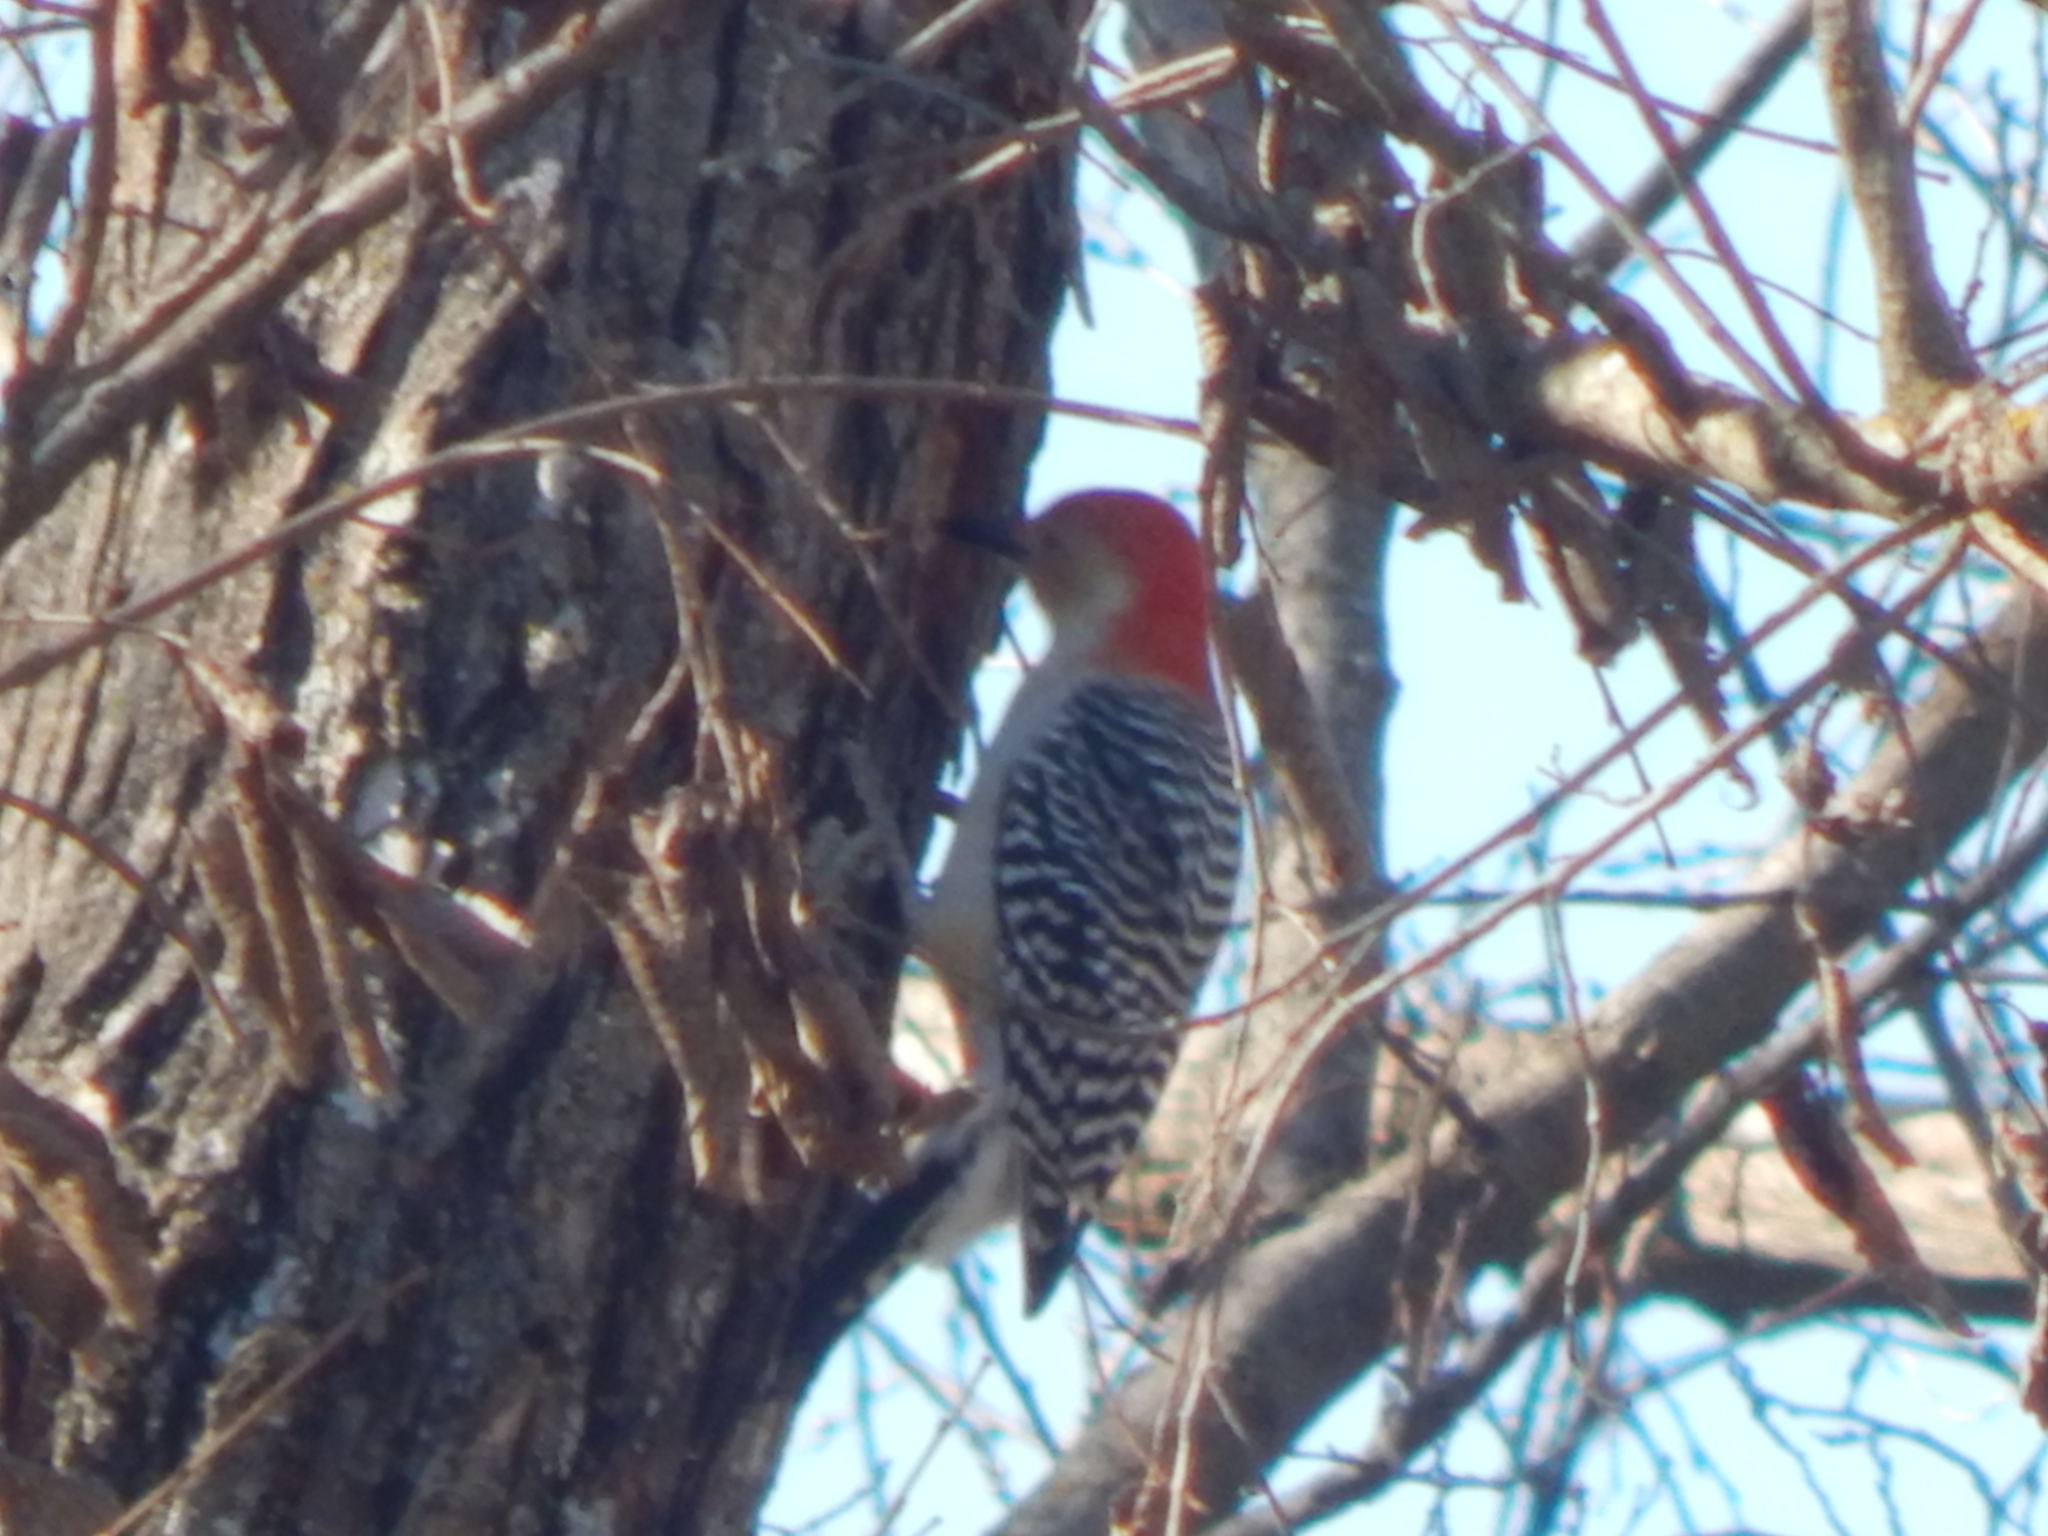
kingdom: Animalia
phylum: Chordata
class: Aves
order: Piciformes
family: Picidae
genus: Melanerpes
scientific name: Melanerpes carolinus
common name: Red-bellied woodpecker
